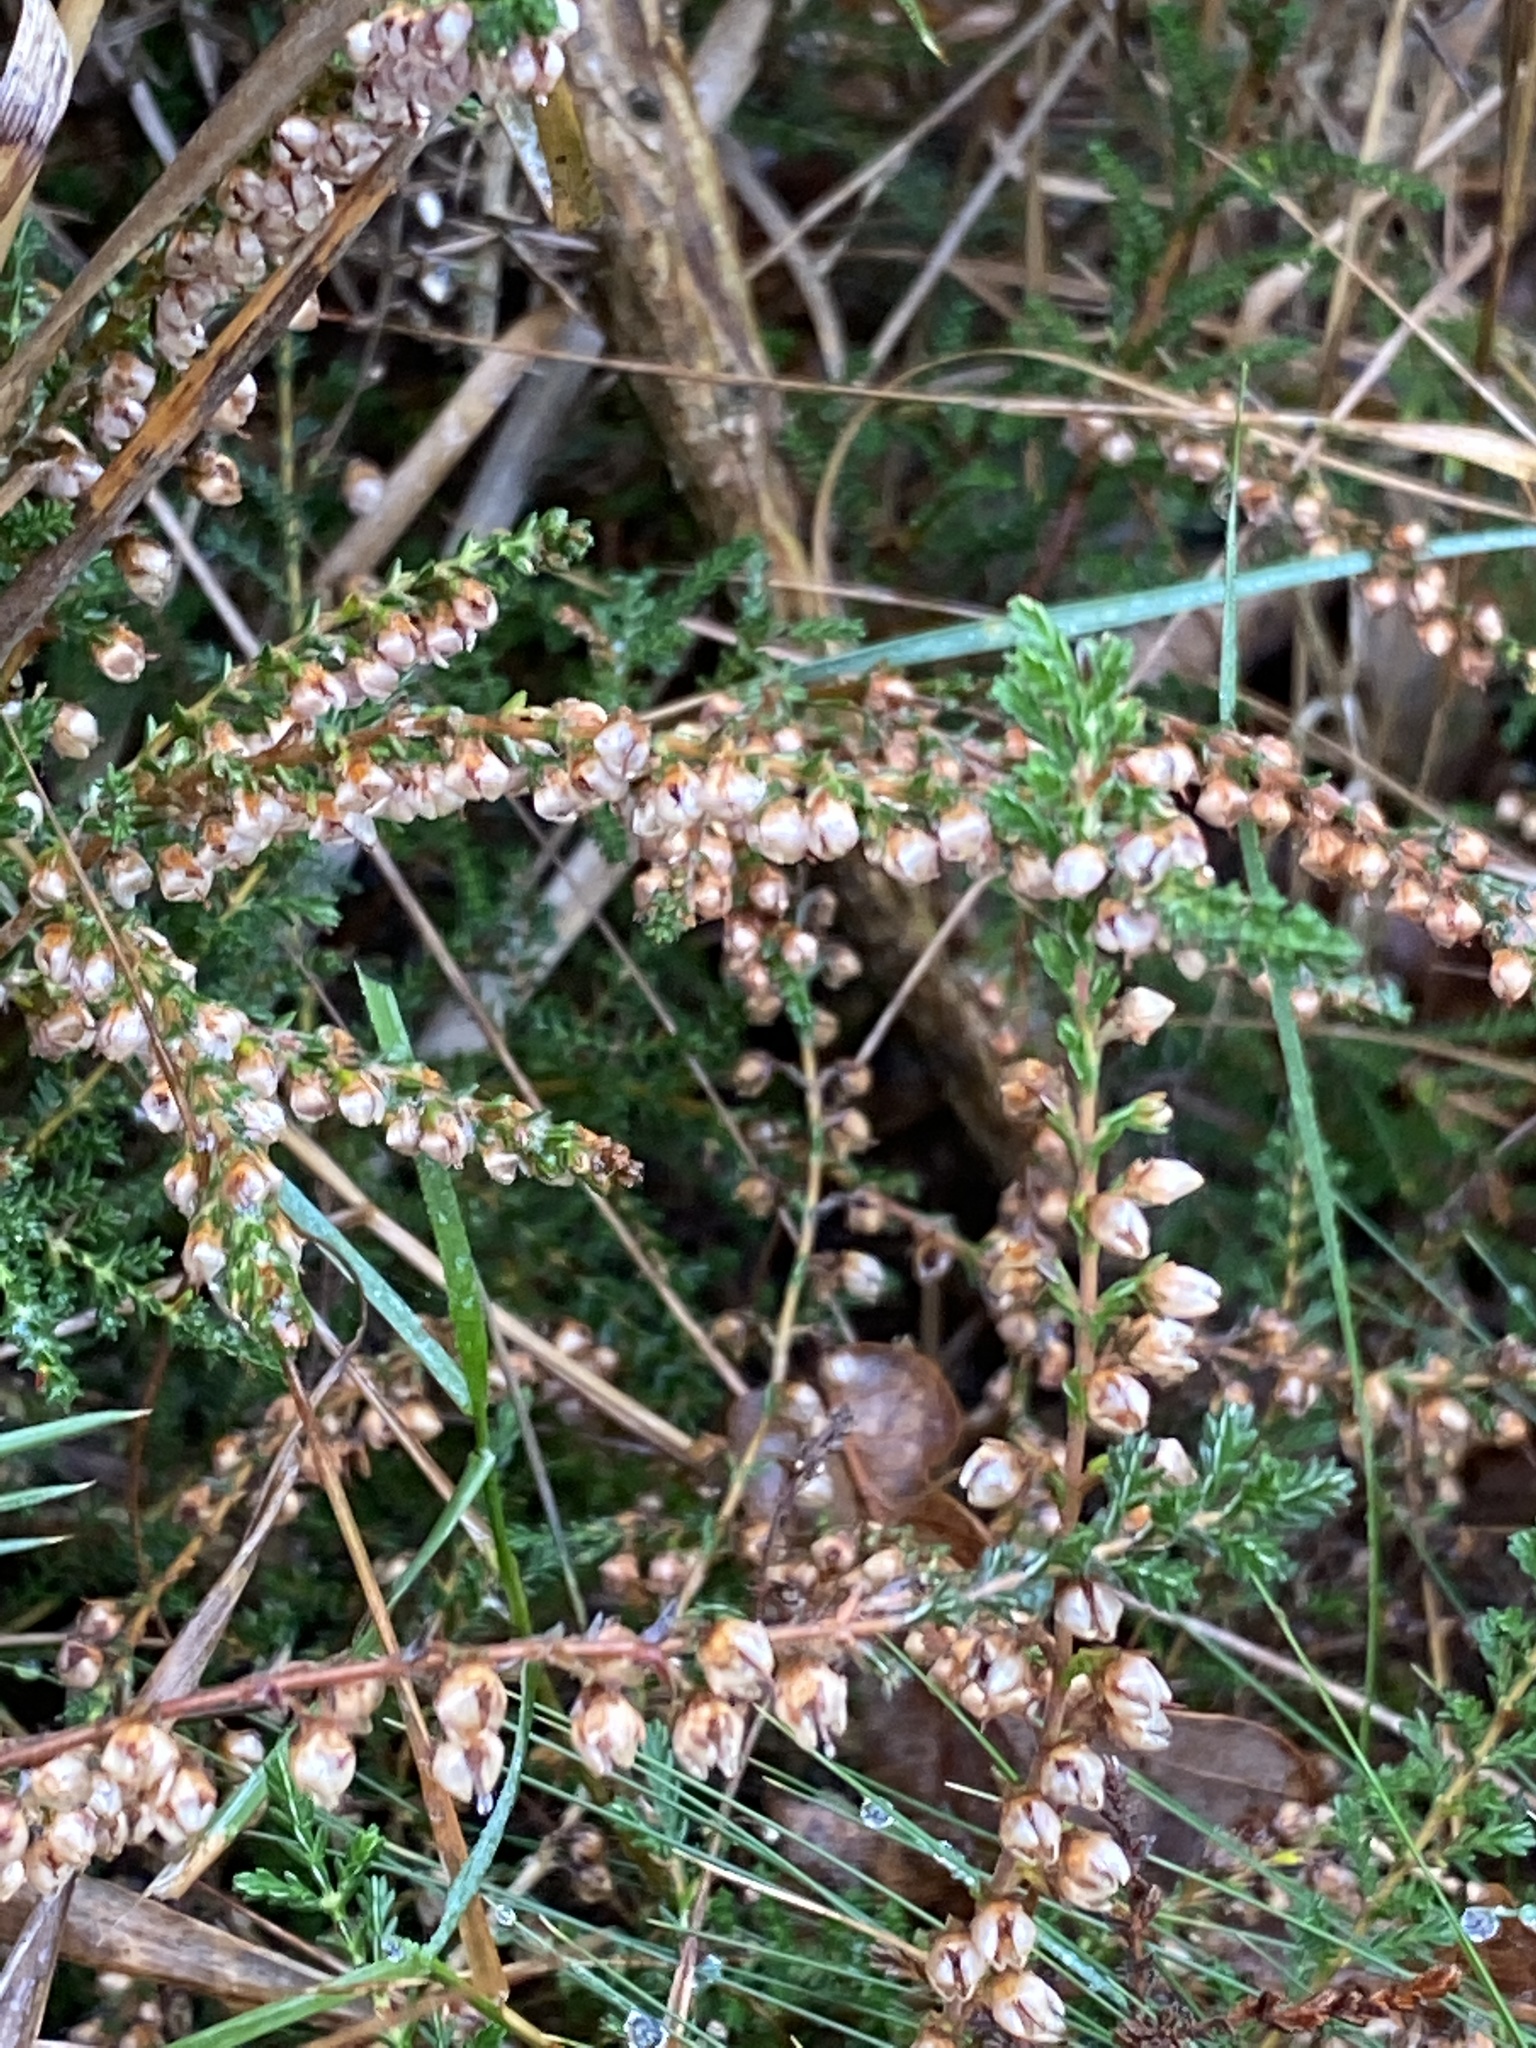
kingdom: Plantae
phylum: Tracheophyta
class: Magnoliopsida
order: Ericales
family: Ericaceae
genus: Calluna
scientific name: Calluna vulgaris
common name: Heather
